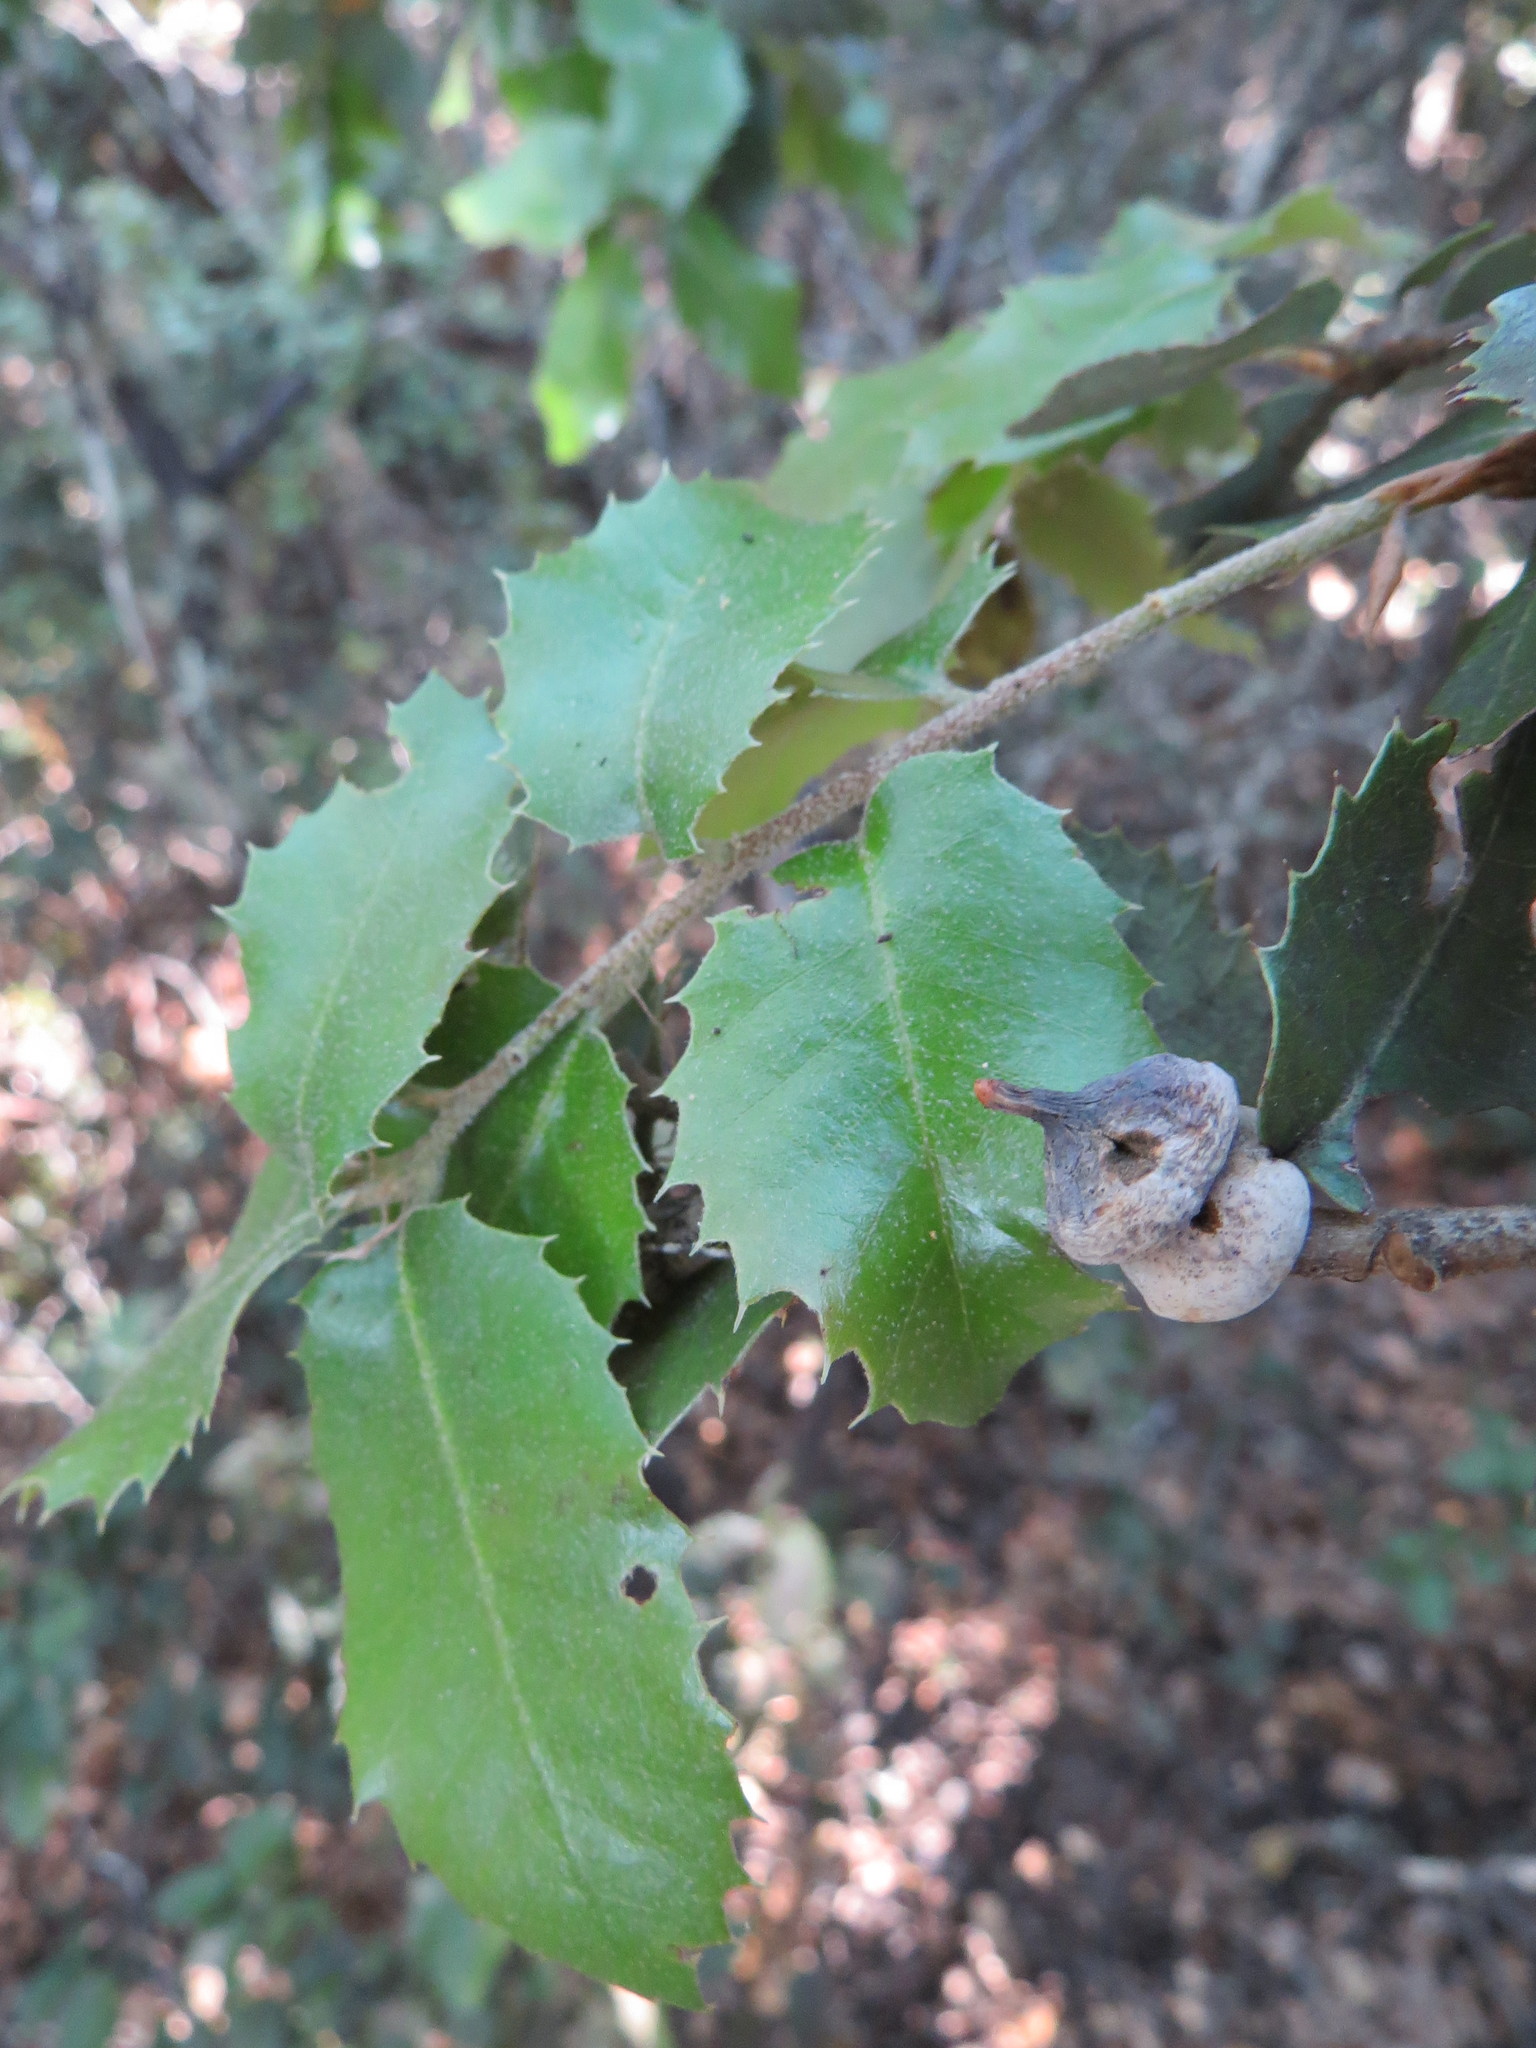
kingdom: Animalia
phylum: Arthropoda
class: Insecta
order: Hymenoptera
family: Cynipidae
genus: Heteroecus
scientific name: Heteroecus
